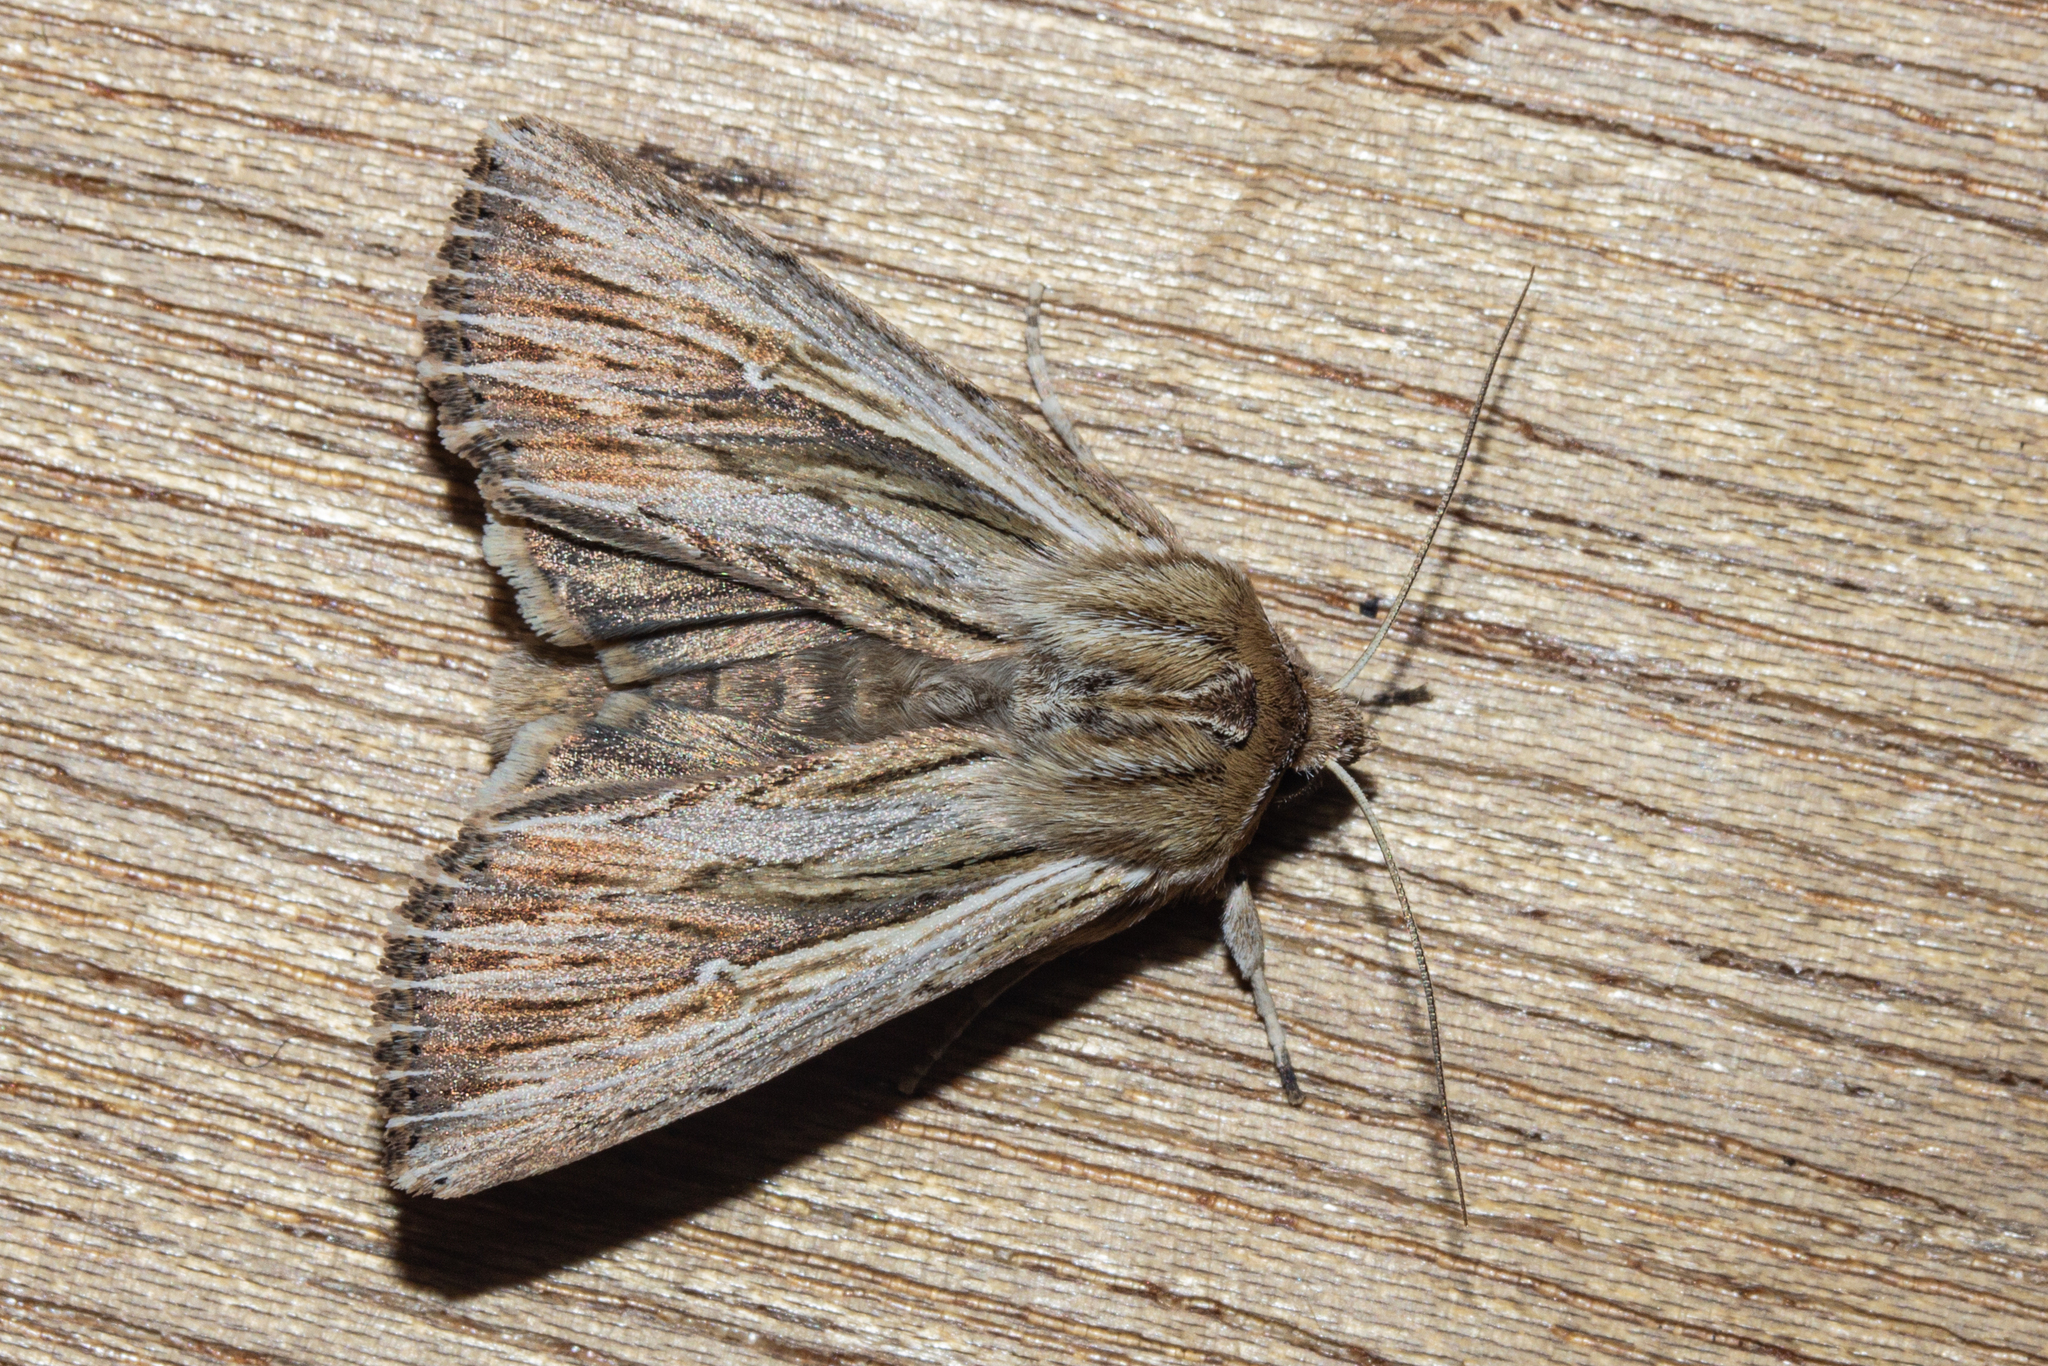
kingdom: Animalia
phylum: Arthropoda
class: Insecta
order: Lepidoptera
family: Noctuidae
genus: Persectania
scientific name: Persectania aversa
